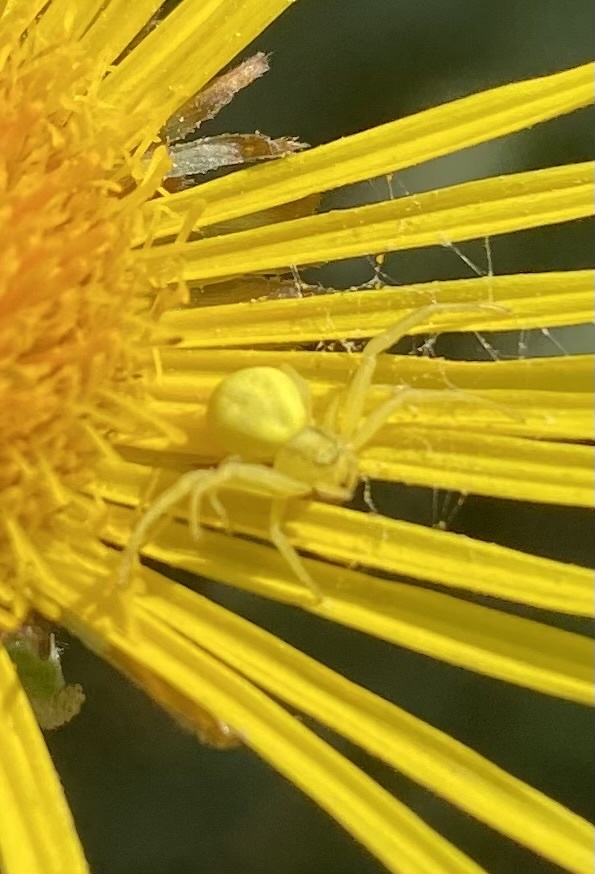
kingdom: Animalia
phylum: Arthropoda
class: Arachnida
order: Araneae
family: Thomisidae
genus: Misumena
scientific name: Misumena vatia
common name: Goldenrod crab spider
